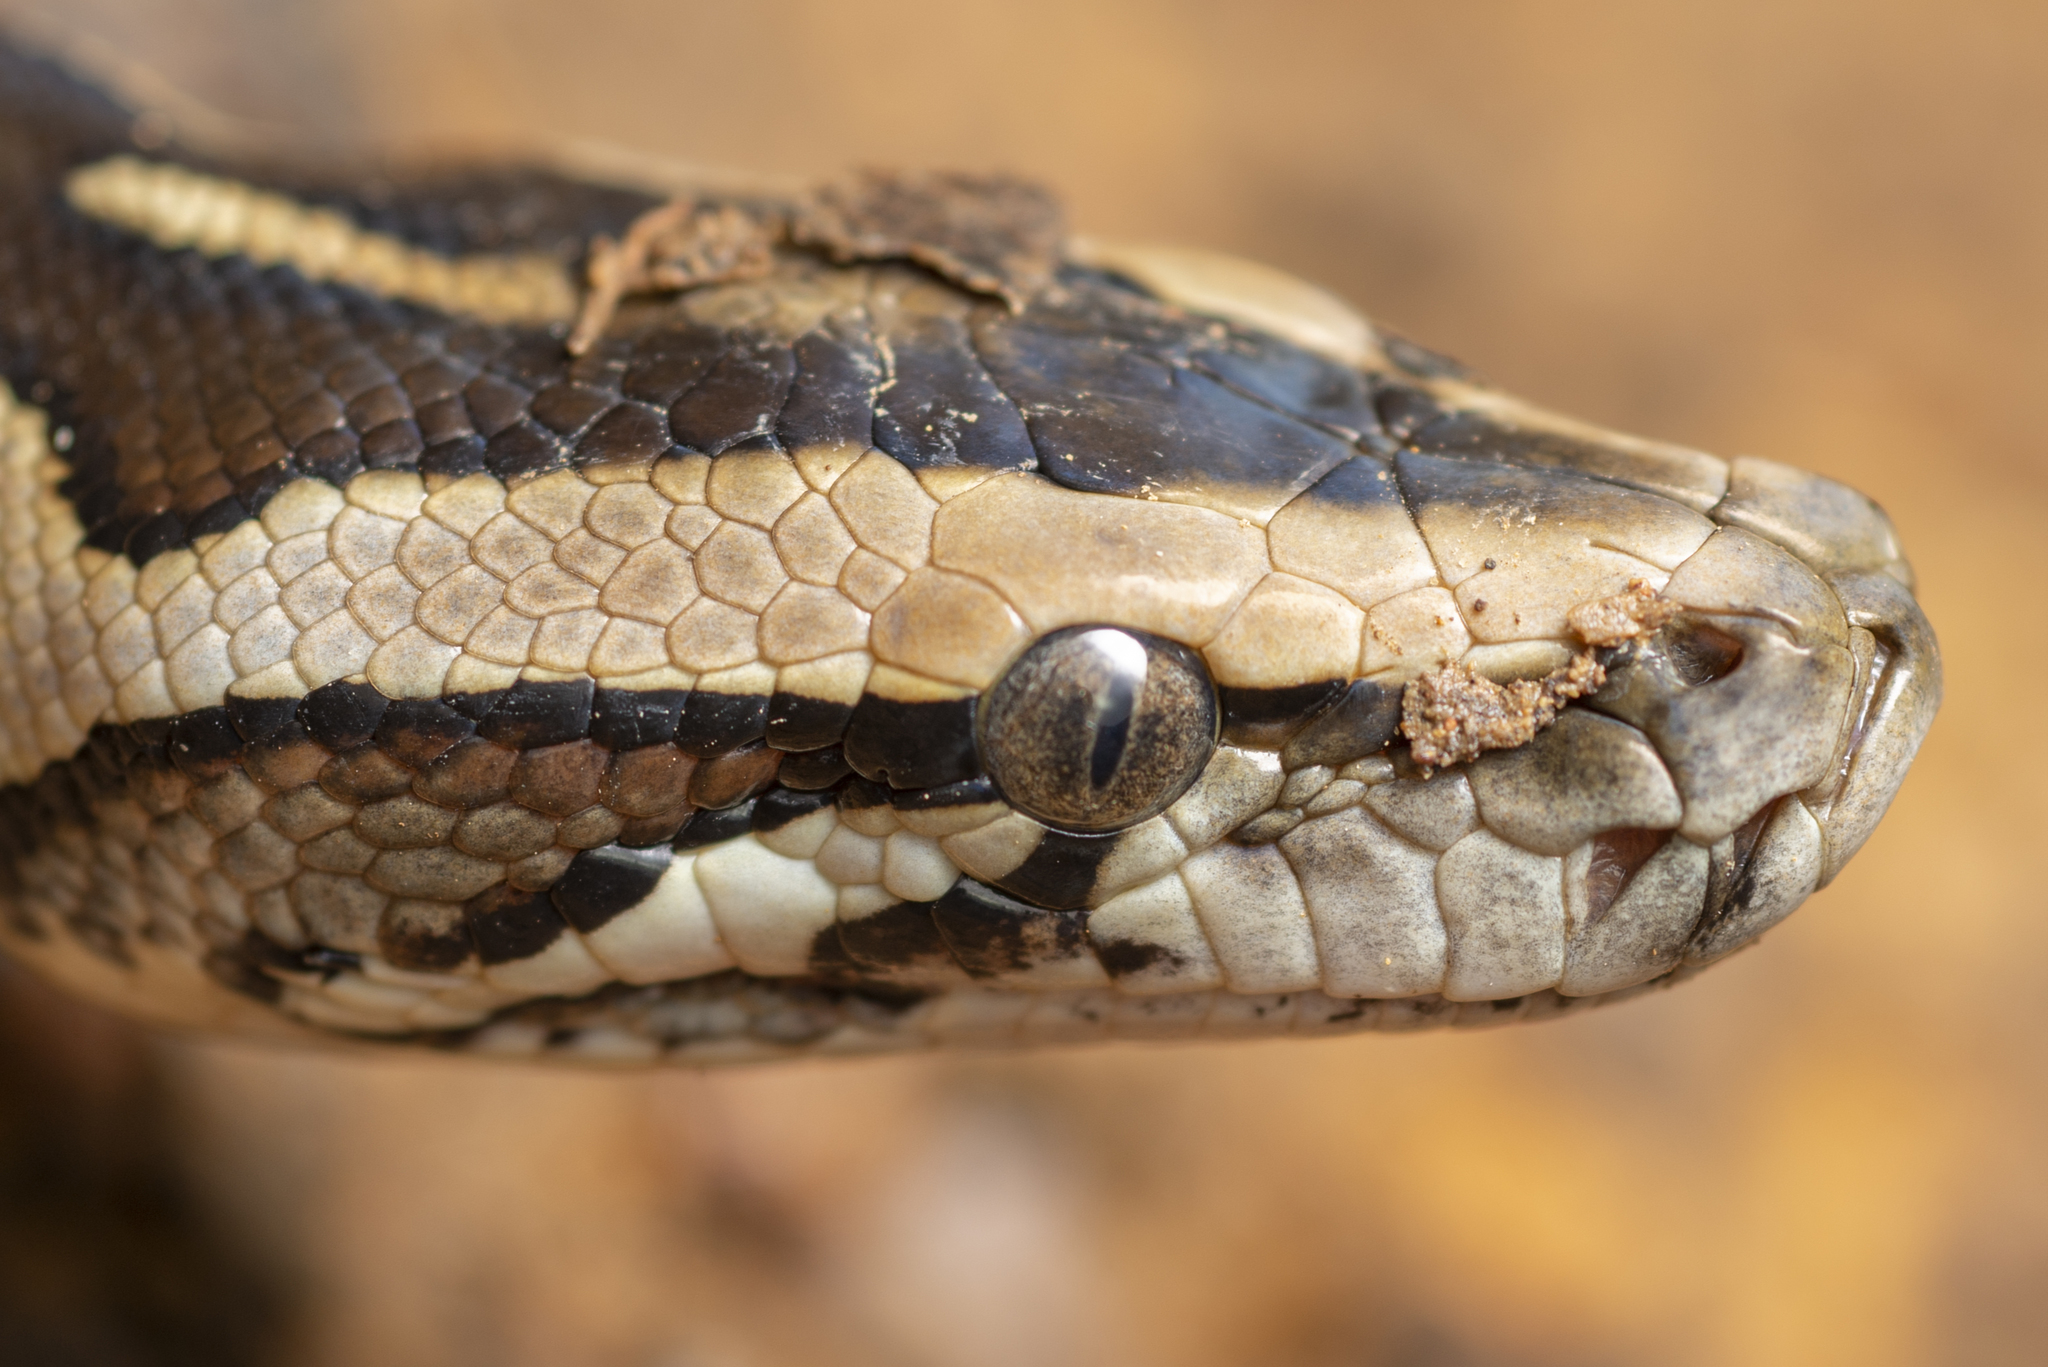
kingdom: Animalia
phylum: Chordata
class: Squamata
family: Pythonidae
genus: Python
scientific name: Python bivittatus
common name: Burmese python
